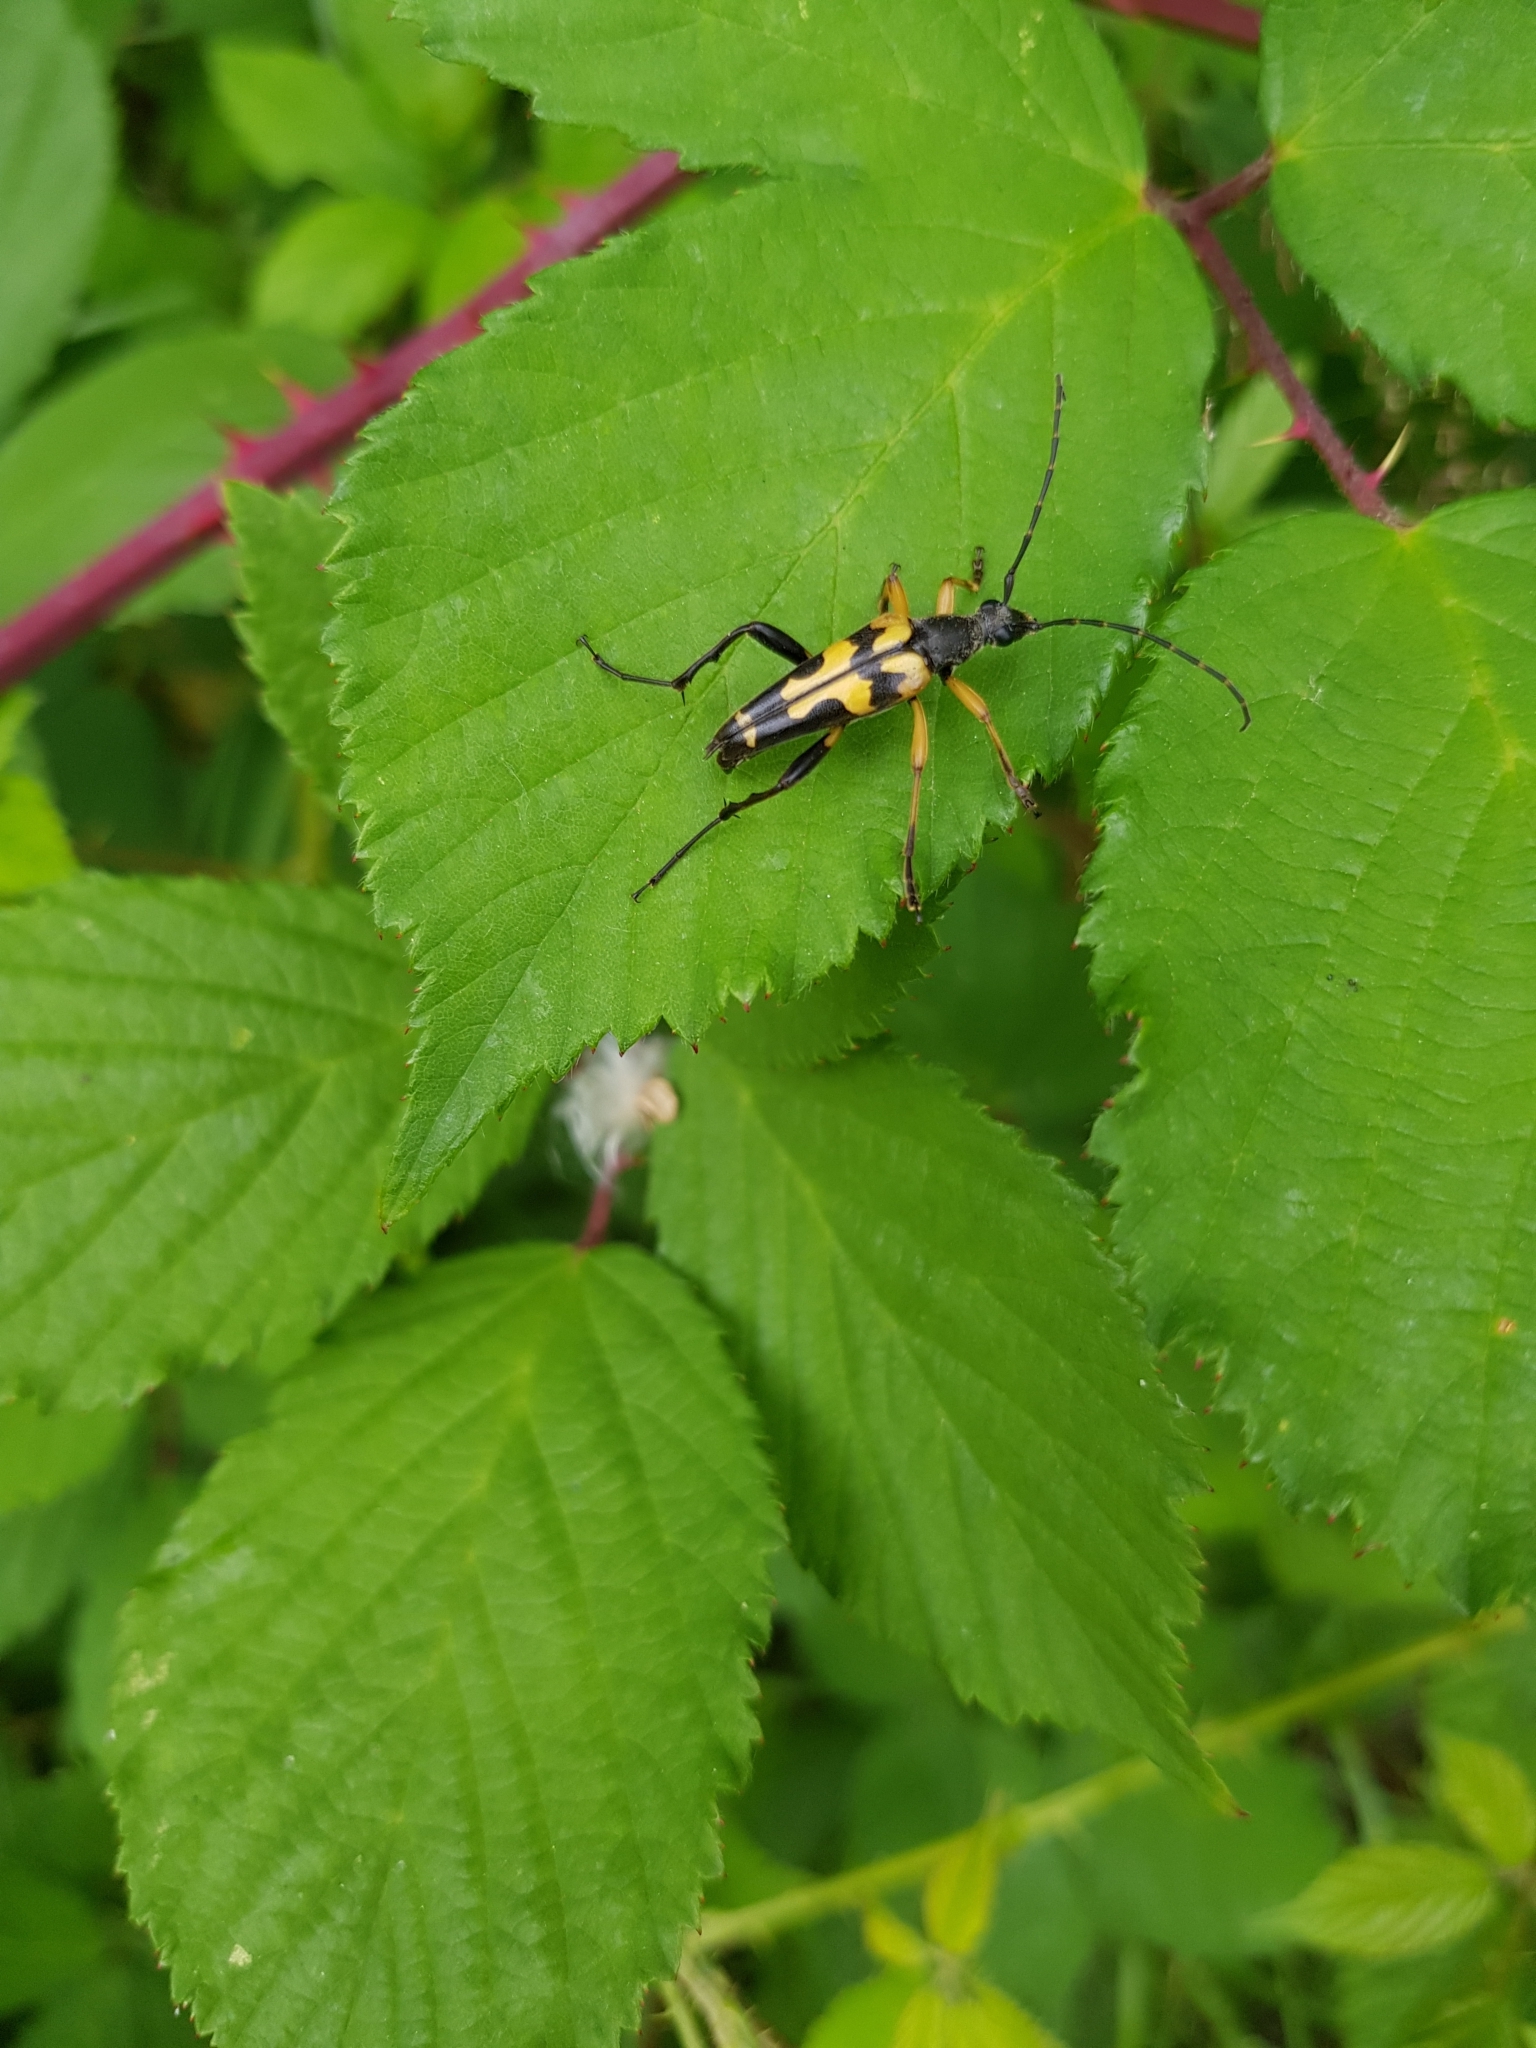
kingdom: Animalia
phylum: Arthropoda
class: Insecta
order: Coleoptera
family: Cerambycidae
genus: Rutpela
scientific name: Rutpela maculata
